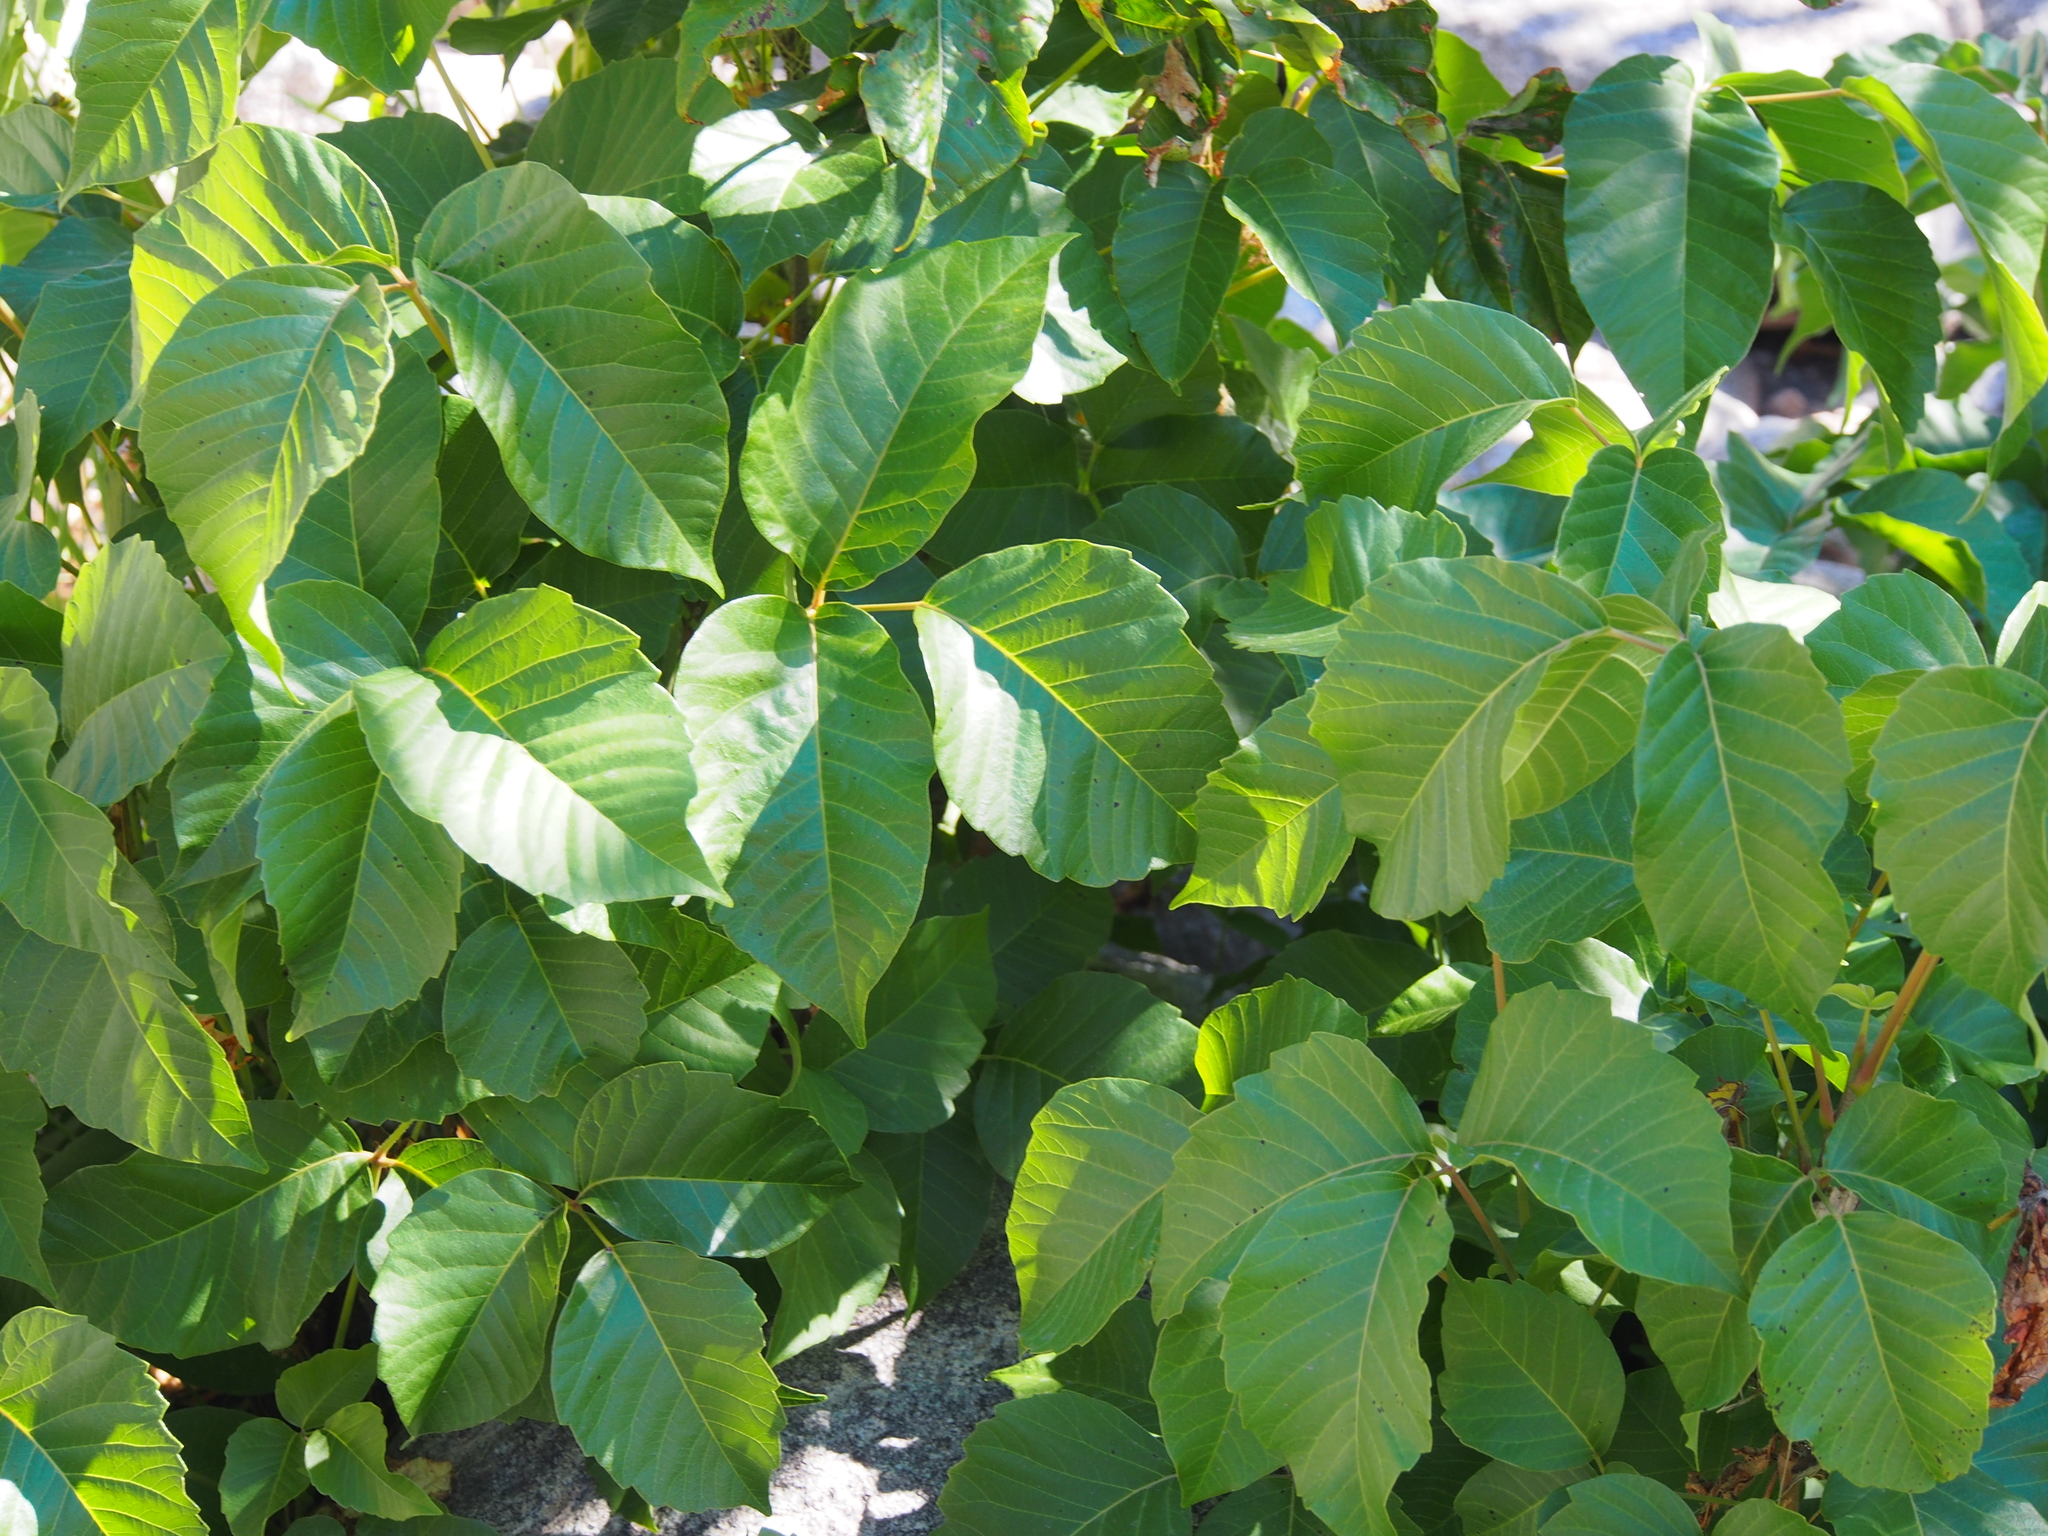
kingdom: Plantae
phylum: Tracheophyta
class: Magnoliopsida
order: Sapindales
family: Anacardiaceae
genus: Toxicodendron
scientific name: Toxicodendron rydbergii
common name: Rydberg's poison-ivy
